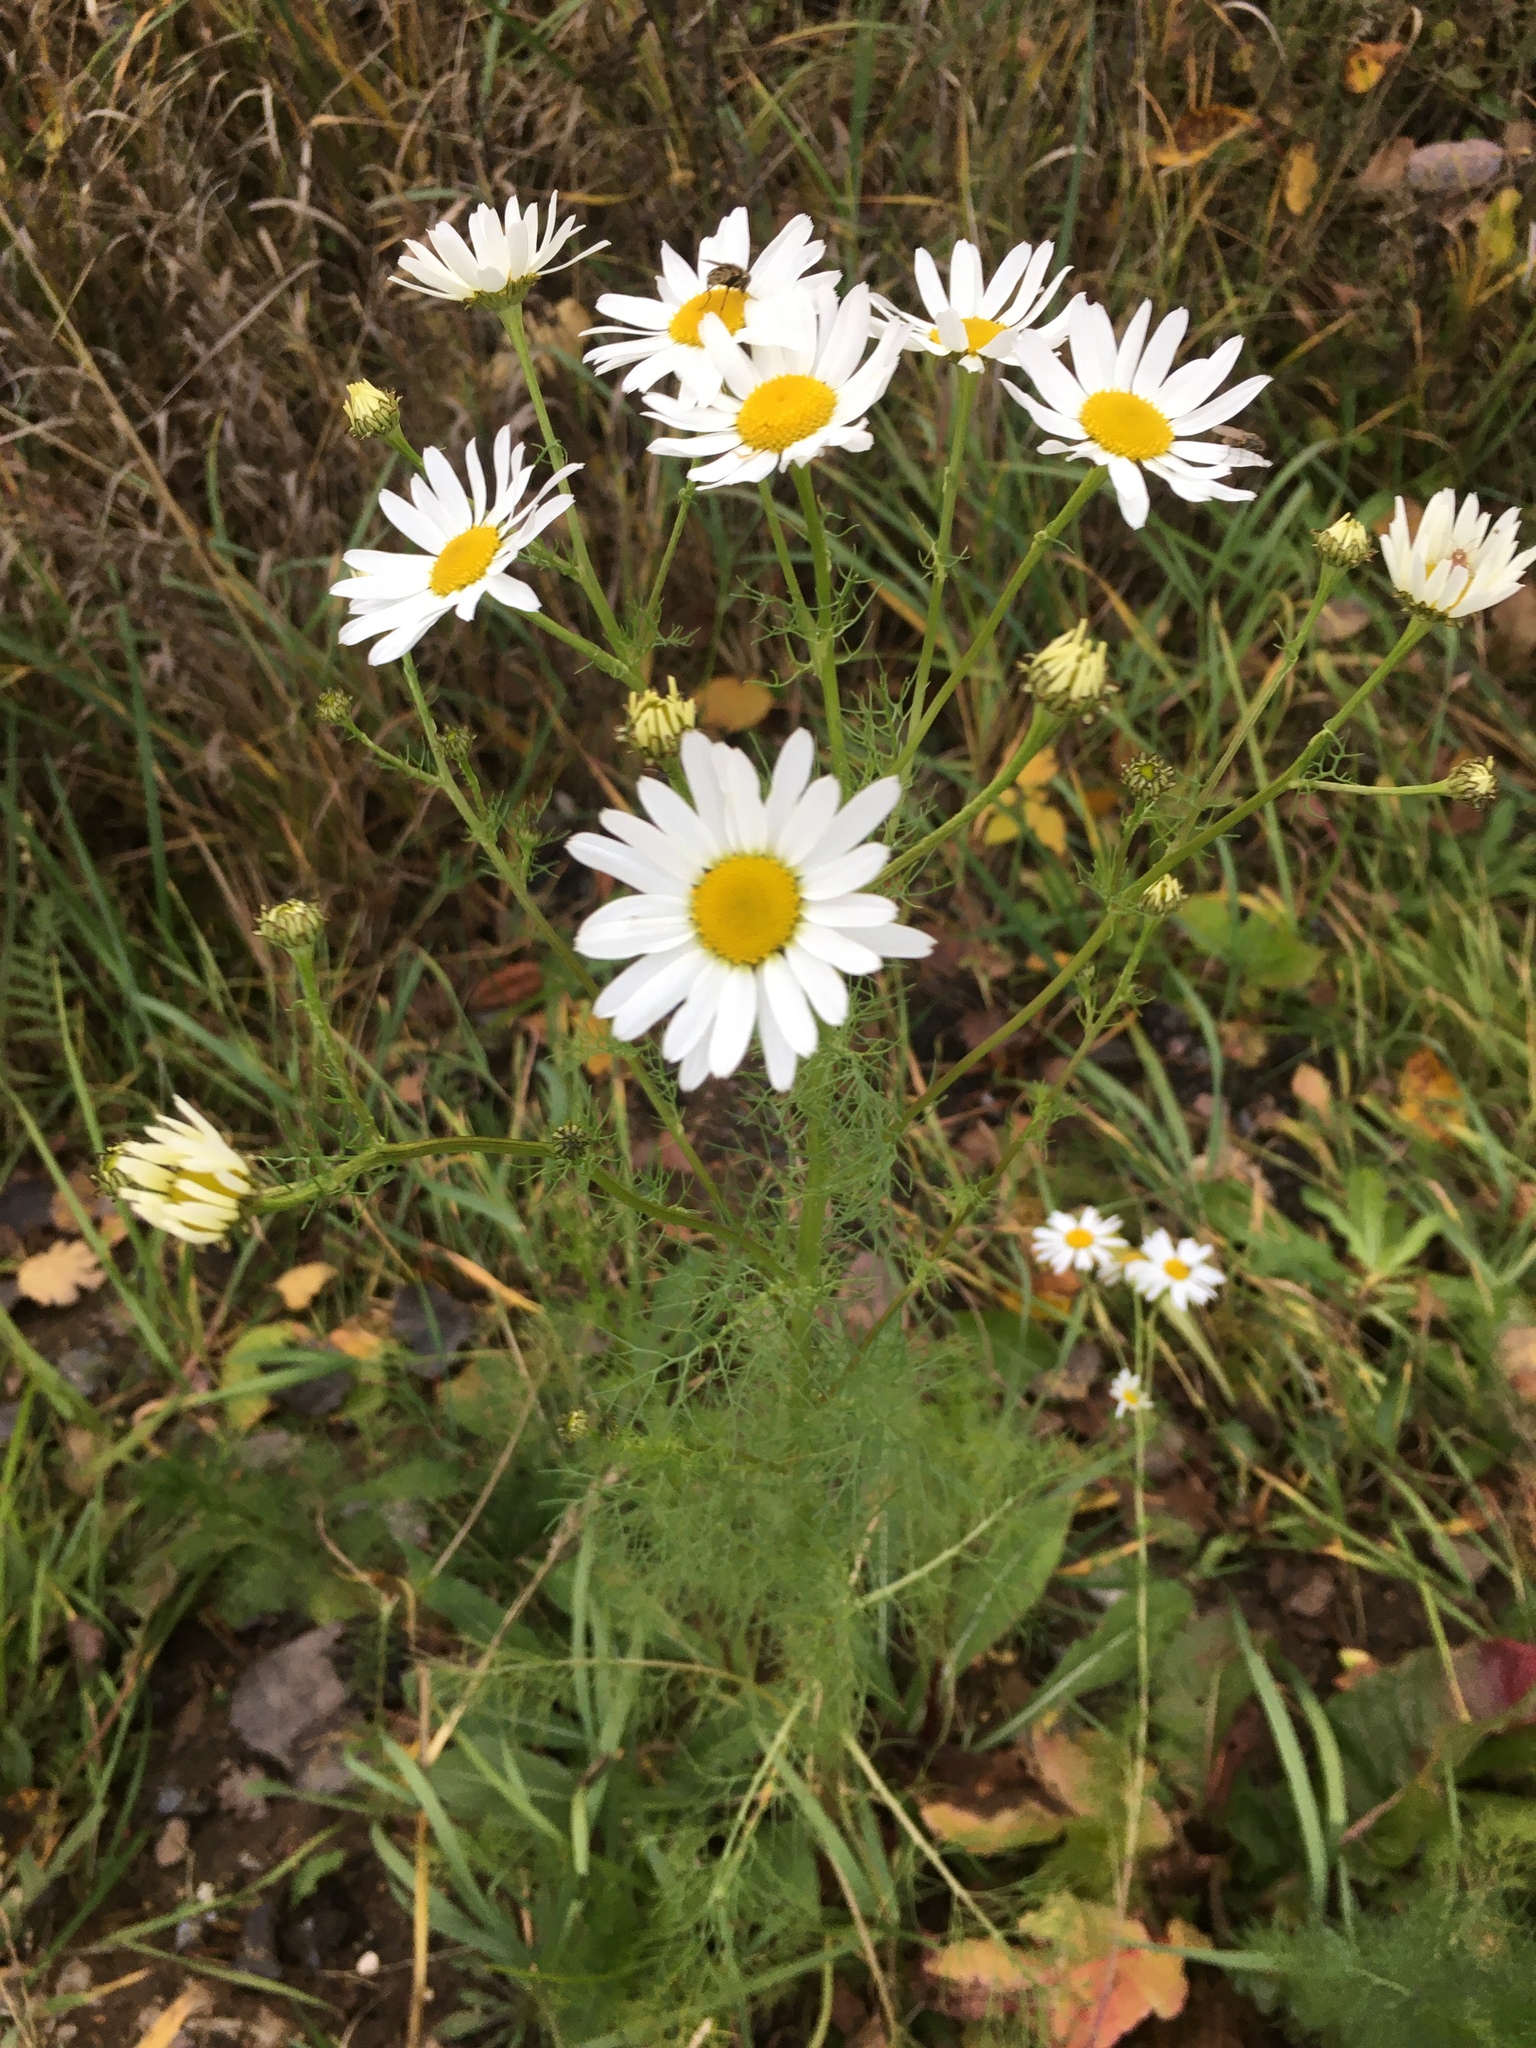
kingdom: Plantae
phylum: Tracheophyta
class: Magnoliopsida
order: Asterales
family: Asteraceae
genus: Tripleurospermum
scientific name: Tripleurospermum inodorum
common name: Scentless mayweed
